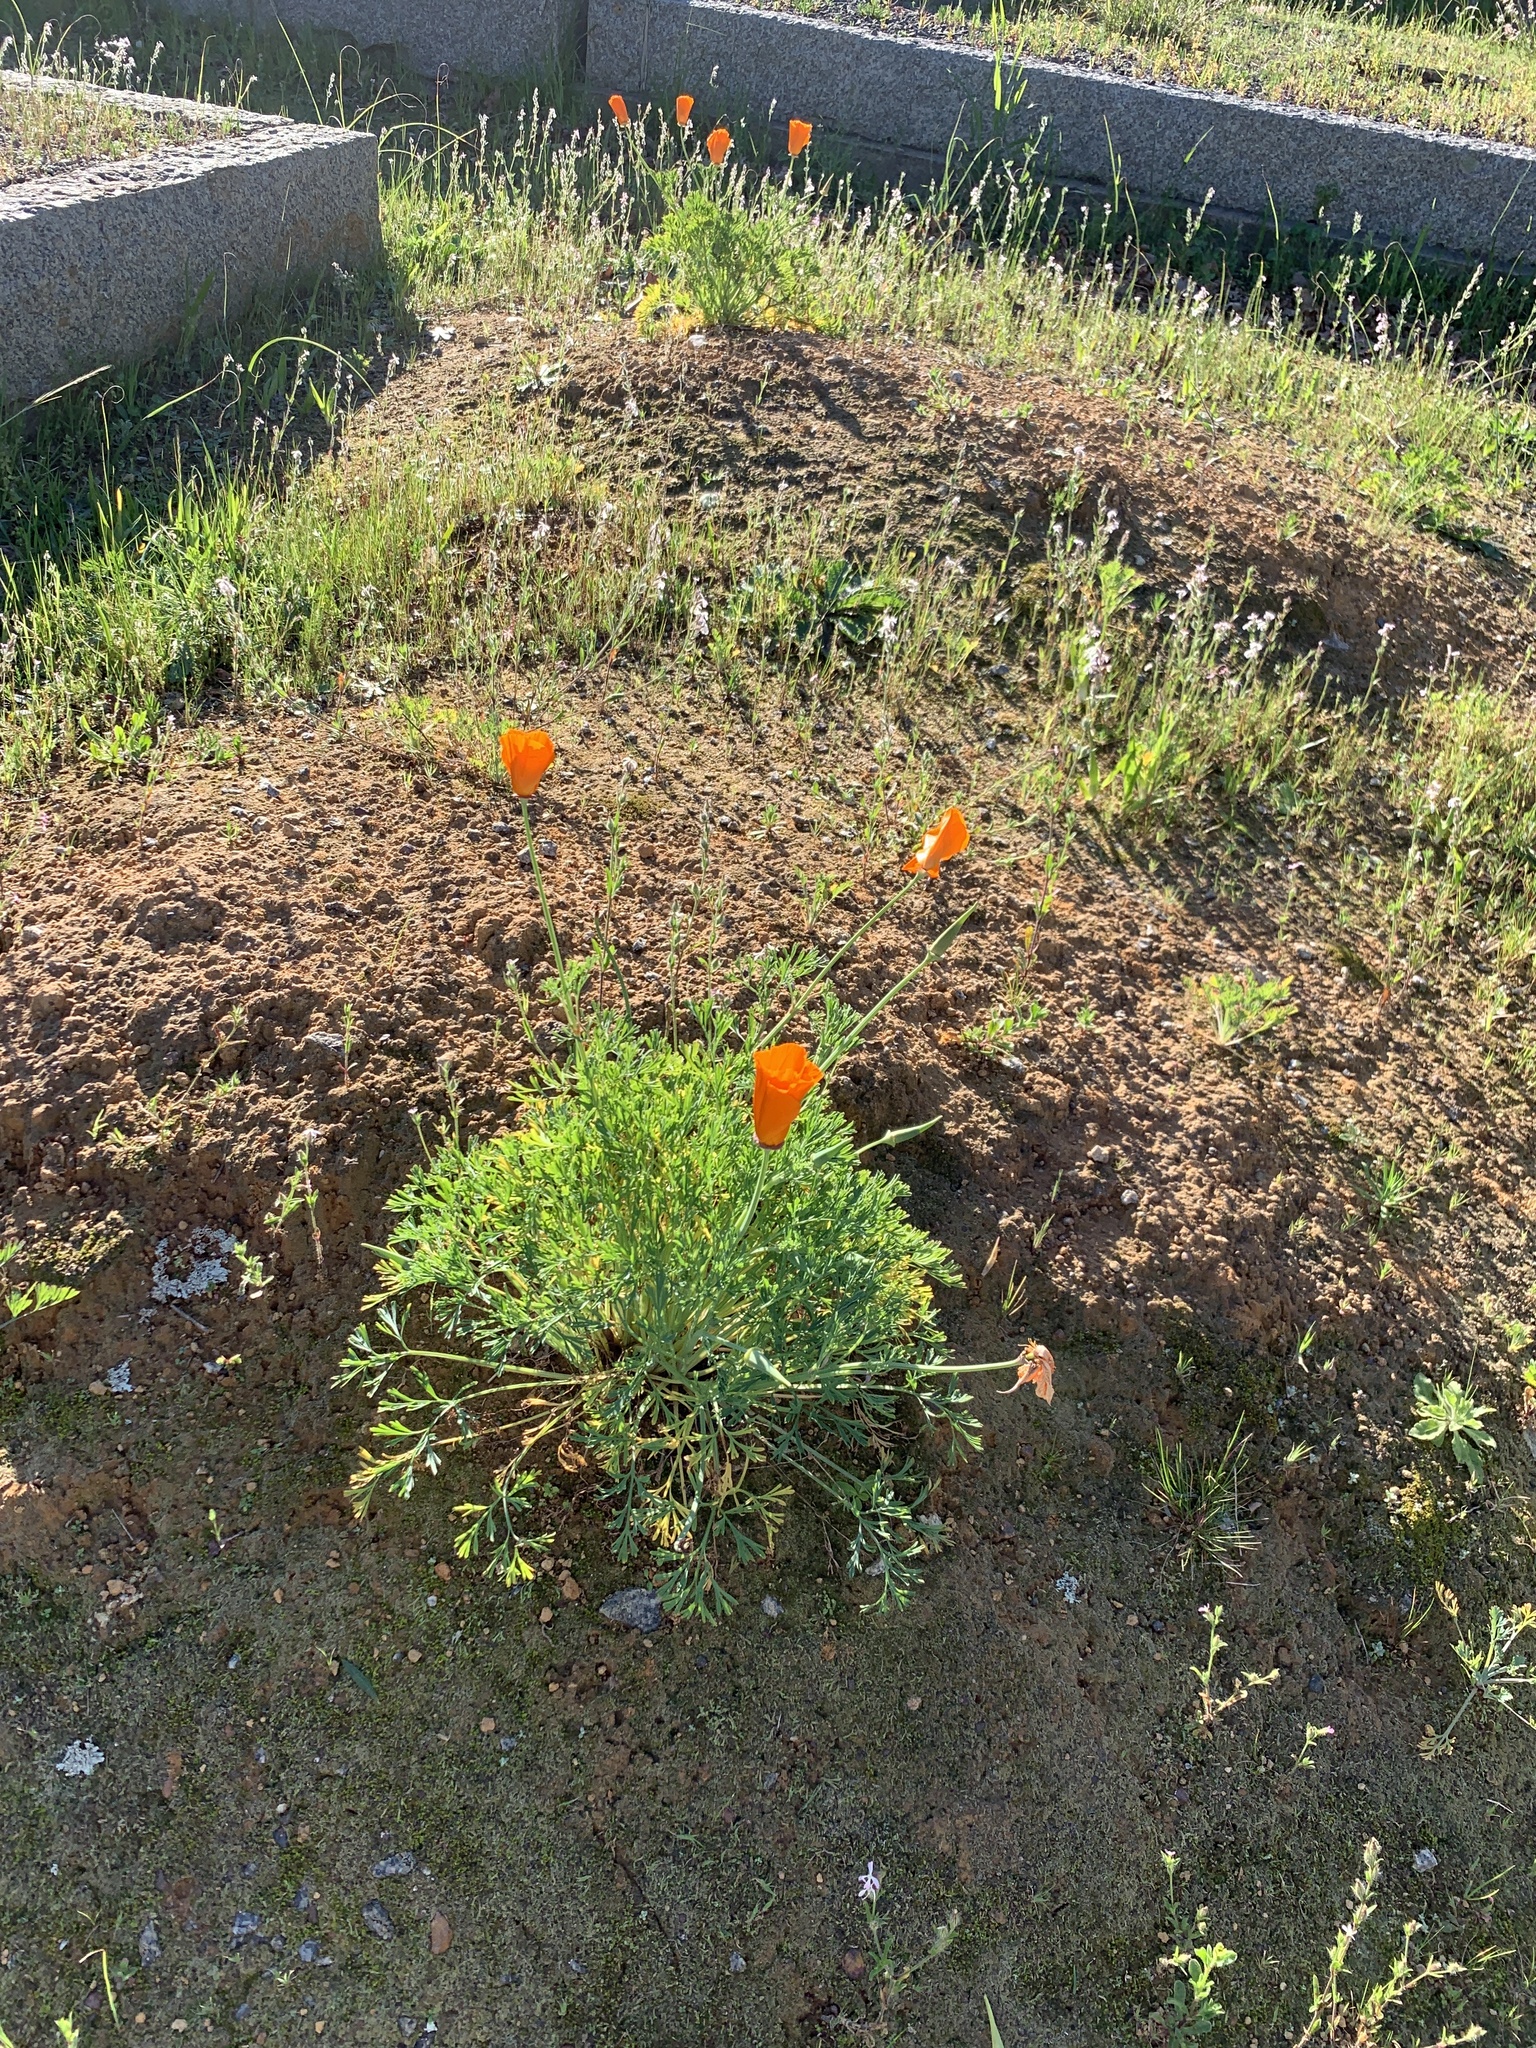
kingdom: Plantae
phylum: Tracheophyta
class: Magnoliopsida
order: Ranunculales
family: Papaveraceae
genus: Eschscholzia
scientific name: Eschscholzia californica
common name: California poppy
